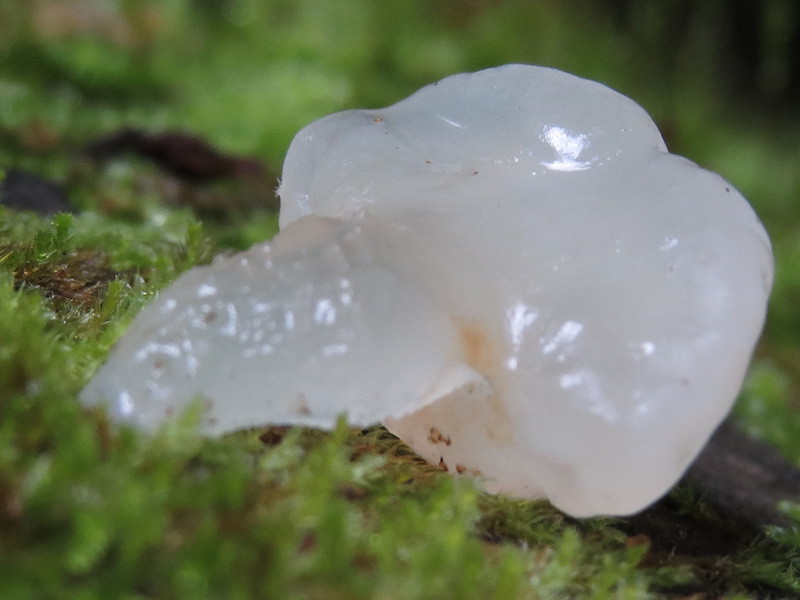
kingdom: Fungi
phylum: Basidiomycota
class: Agaricomycetes
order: Auriculariales
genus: Ductifera
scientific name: Ductifera pululahuana
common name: White jelly fungus
